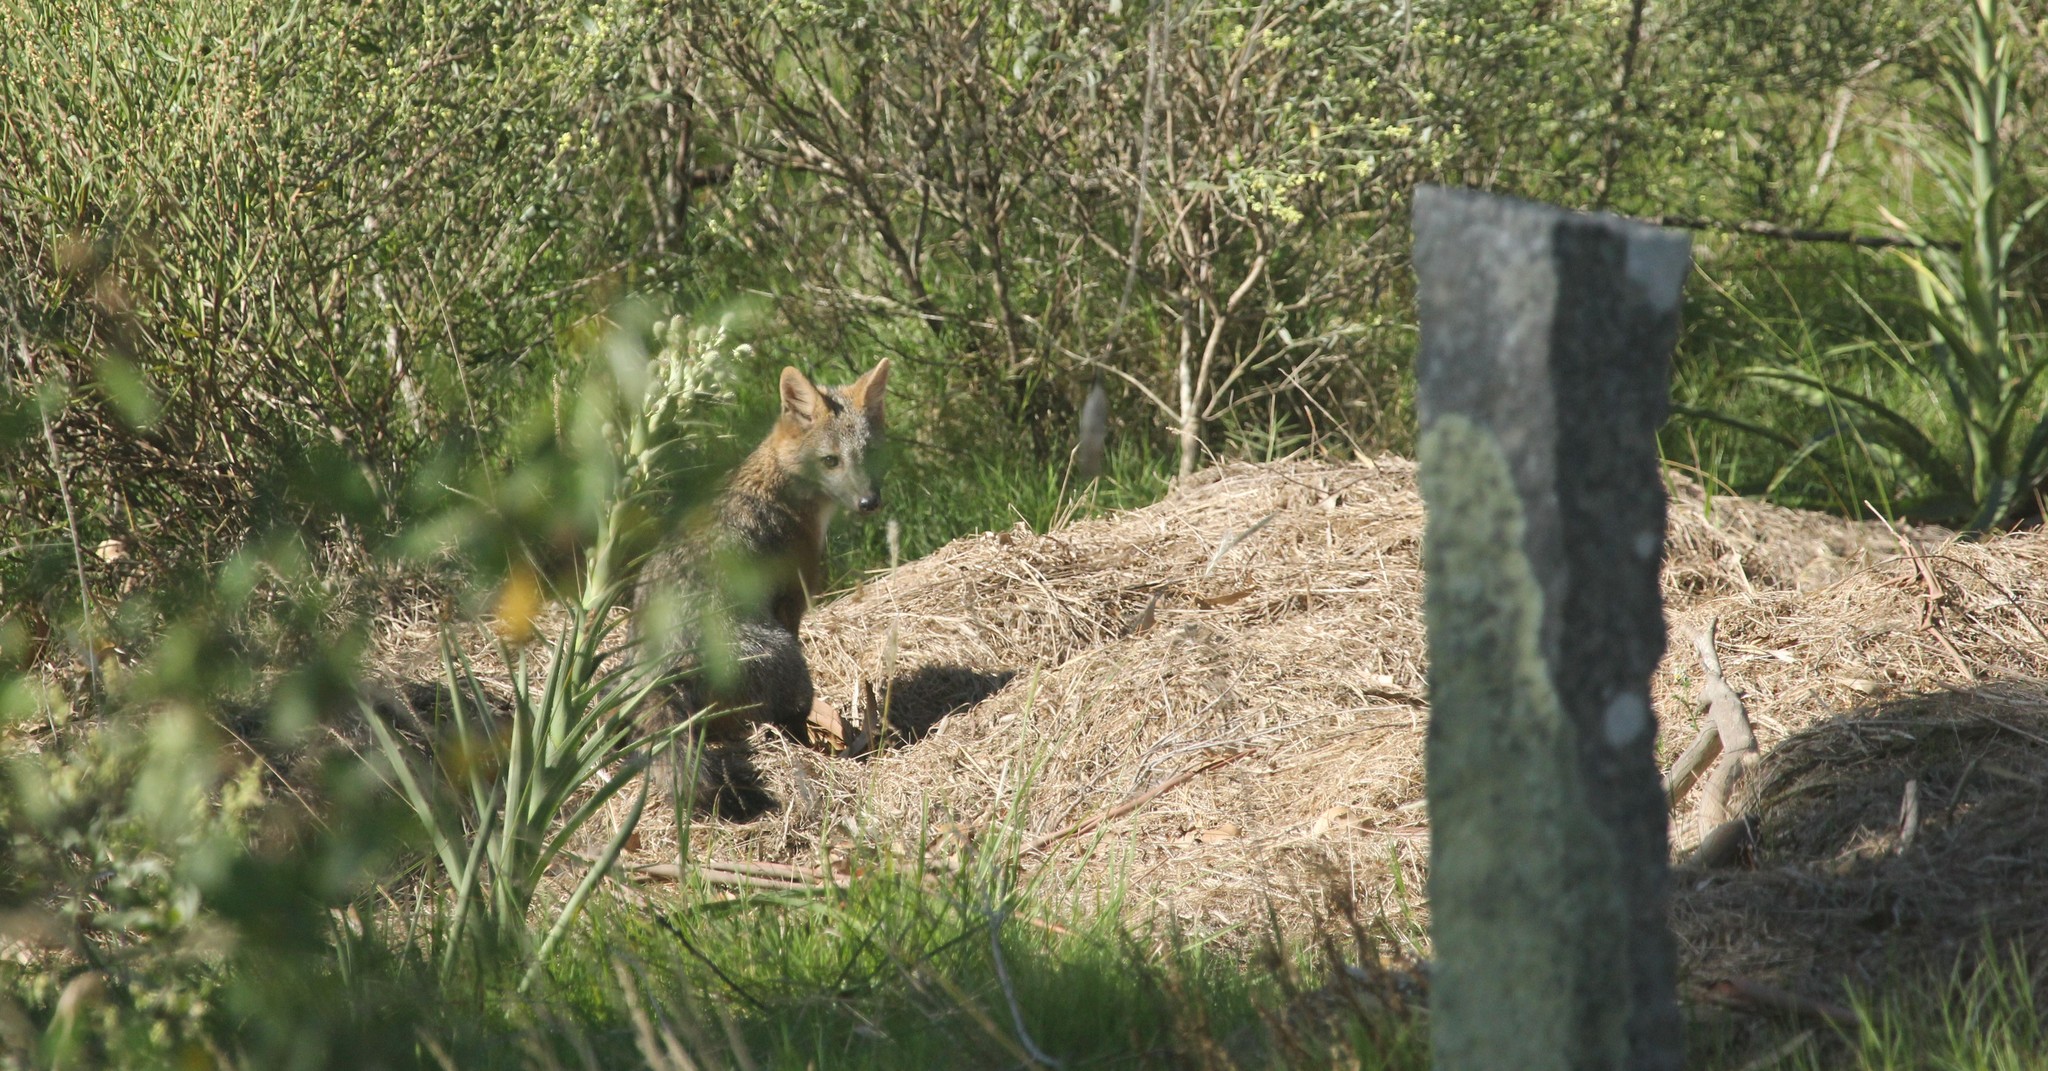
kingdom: Animalia
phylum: Chordata
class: Mammalia
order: Carnivora
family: Canidae
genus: Cerdocyon
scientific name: Cerdocyon thous
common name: Crab-eating fox
